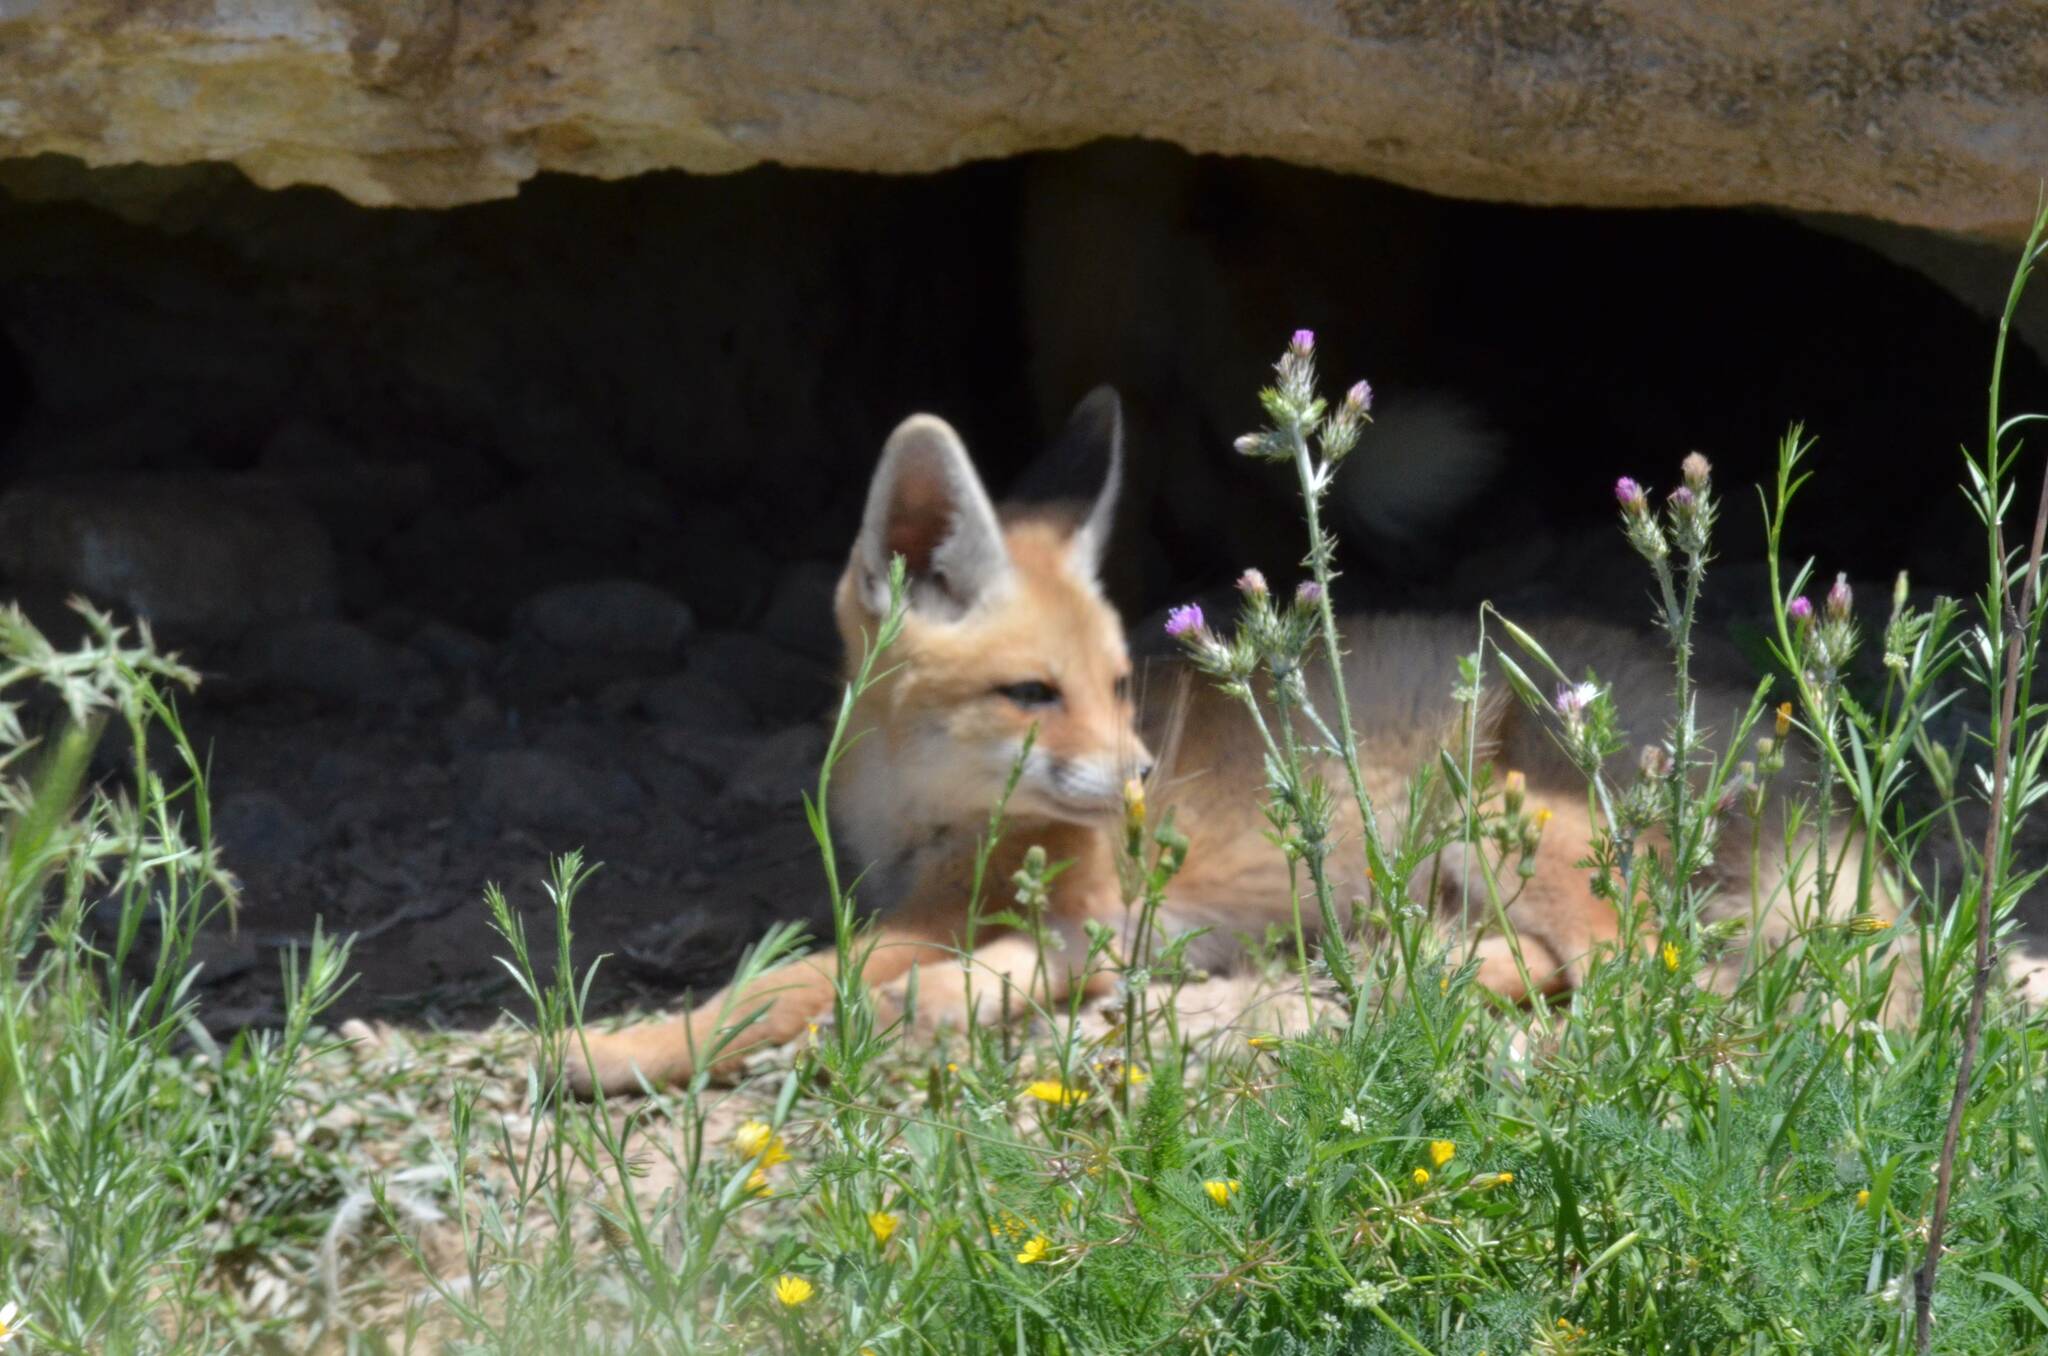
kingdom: Animalia
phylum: Chordata
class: Mammalia
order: Carnivora
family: Canidae
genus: Vulpes
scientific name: Vulpes vulpes
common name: Red fox
